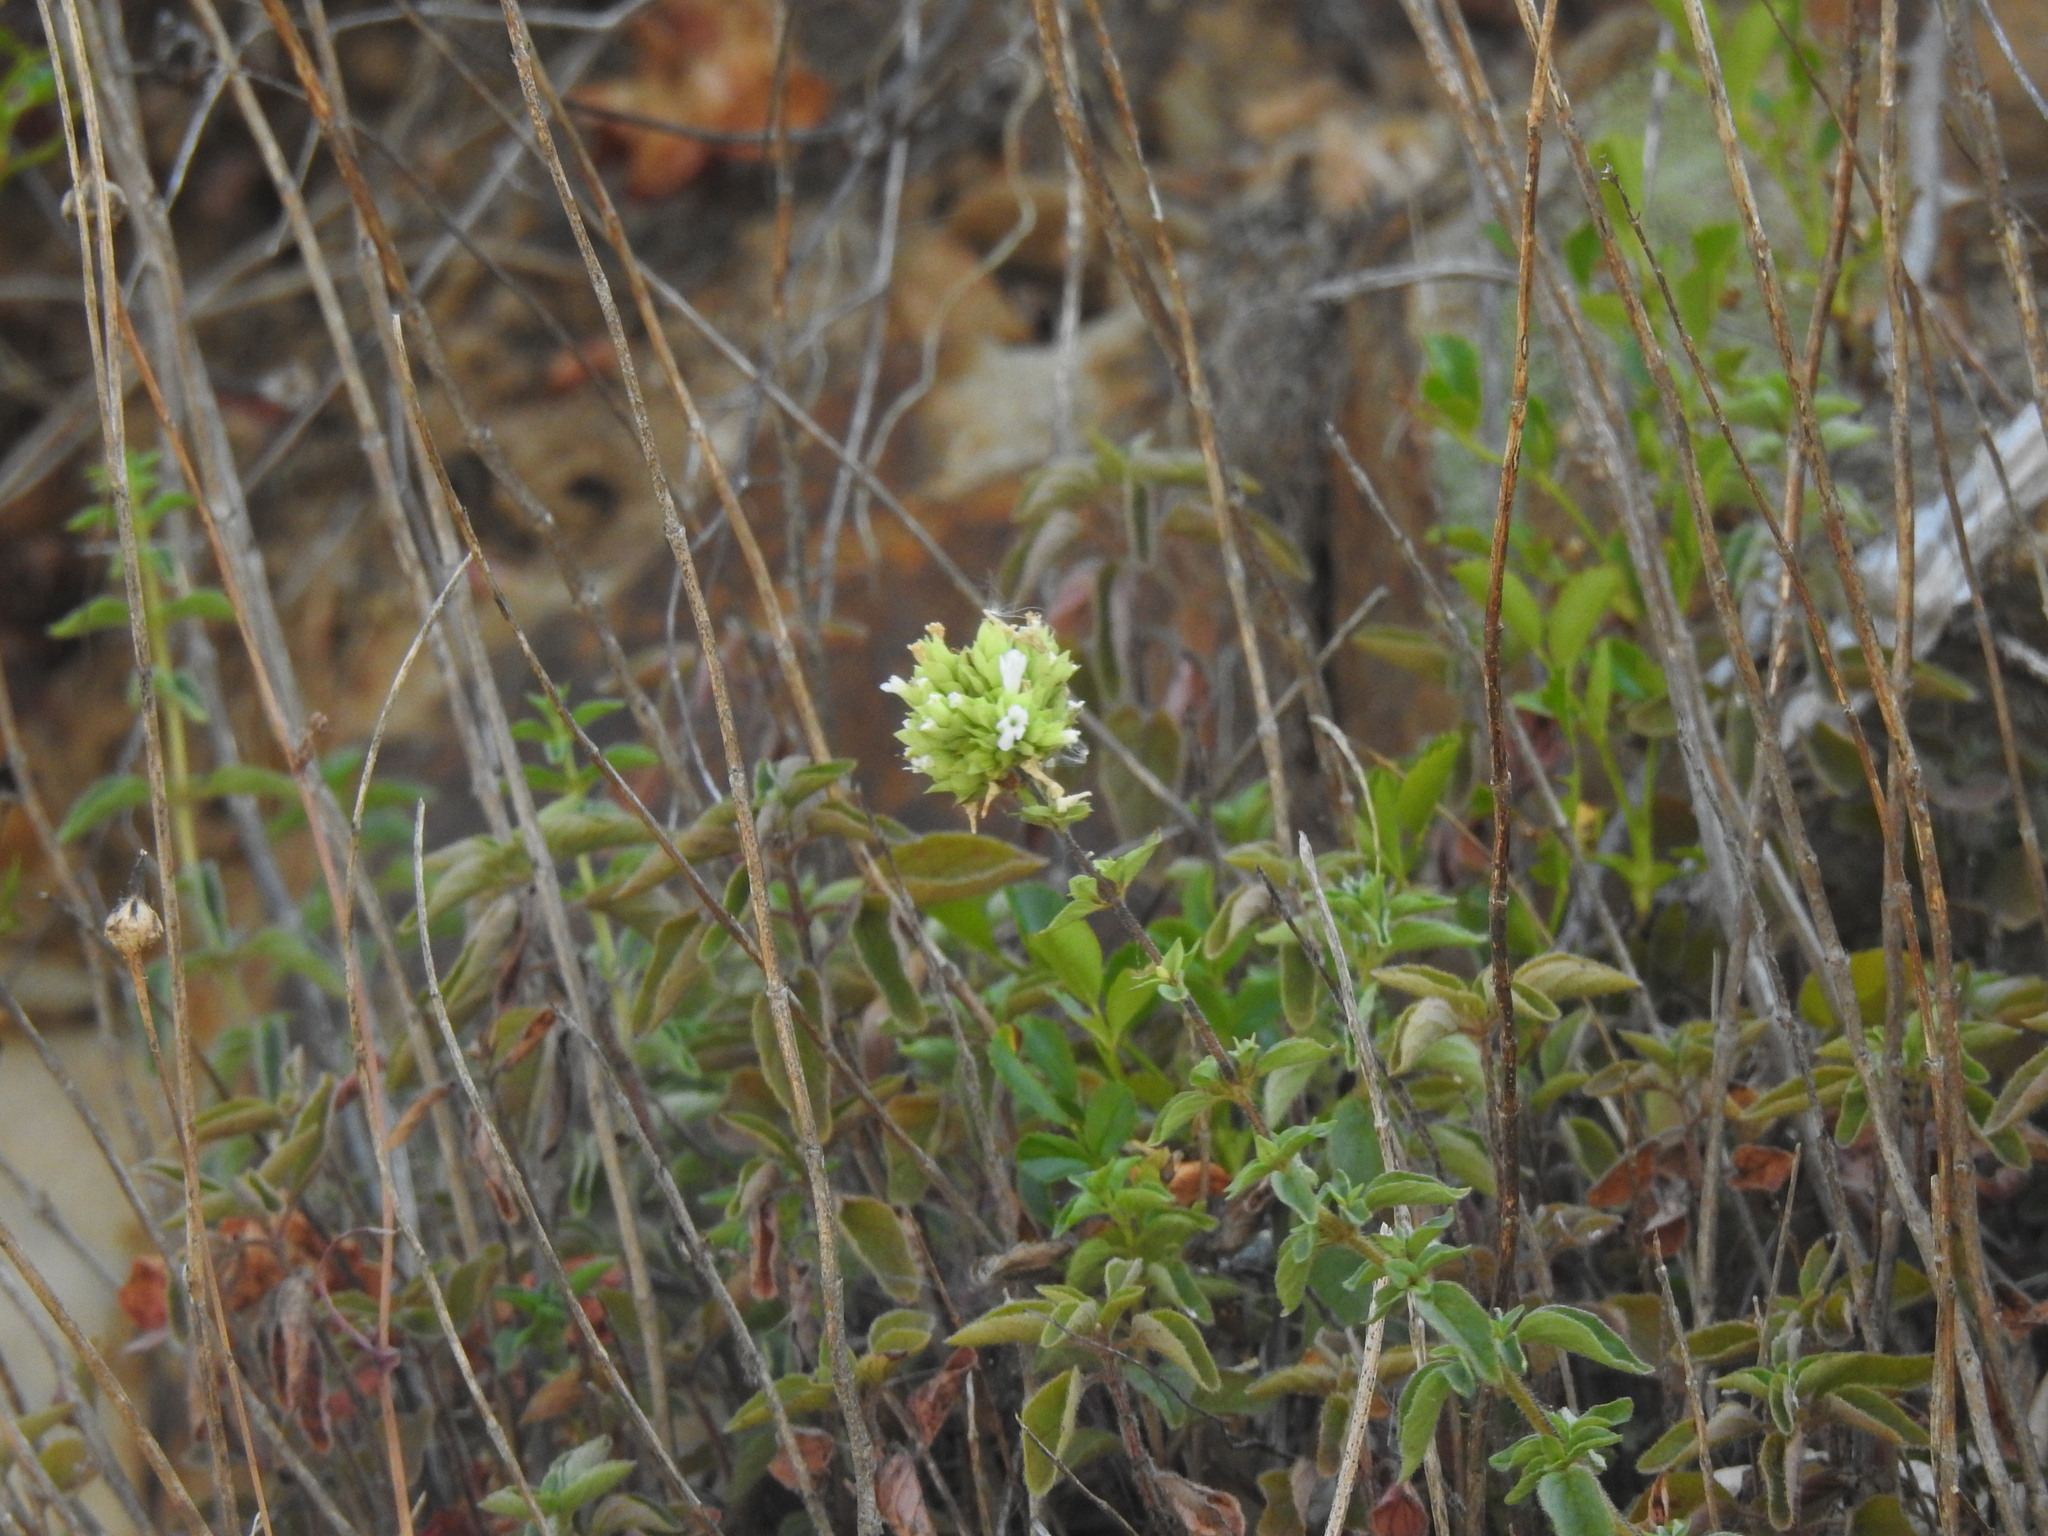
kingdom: Plantae
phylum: Tracheophyta
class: Magnoliopsida
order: Lamiales
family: Lamiaceae
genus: Origanum
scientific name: Origanum vulgare
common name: Wild marjoram
